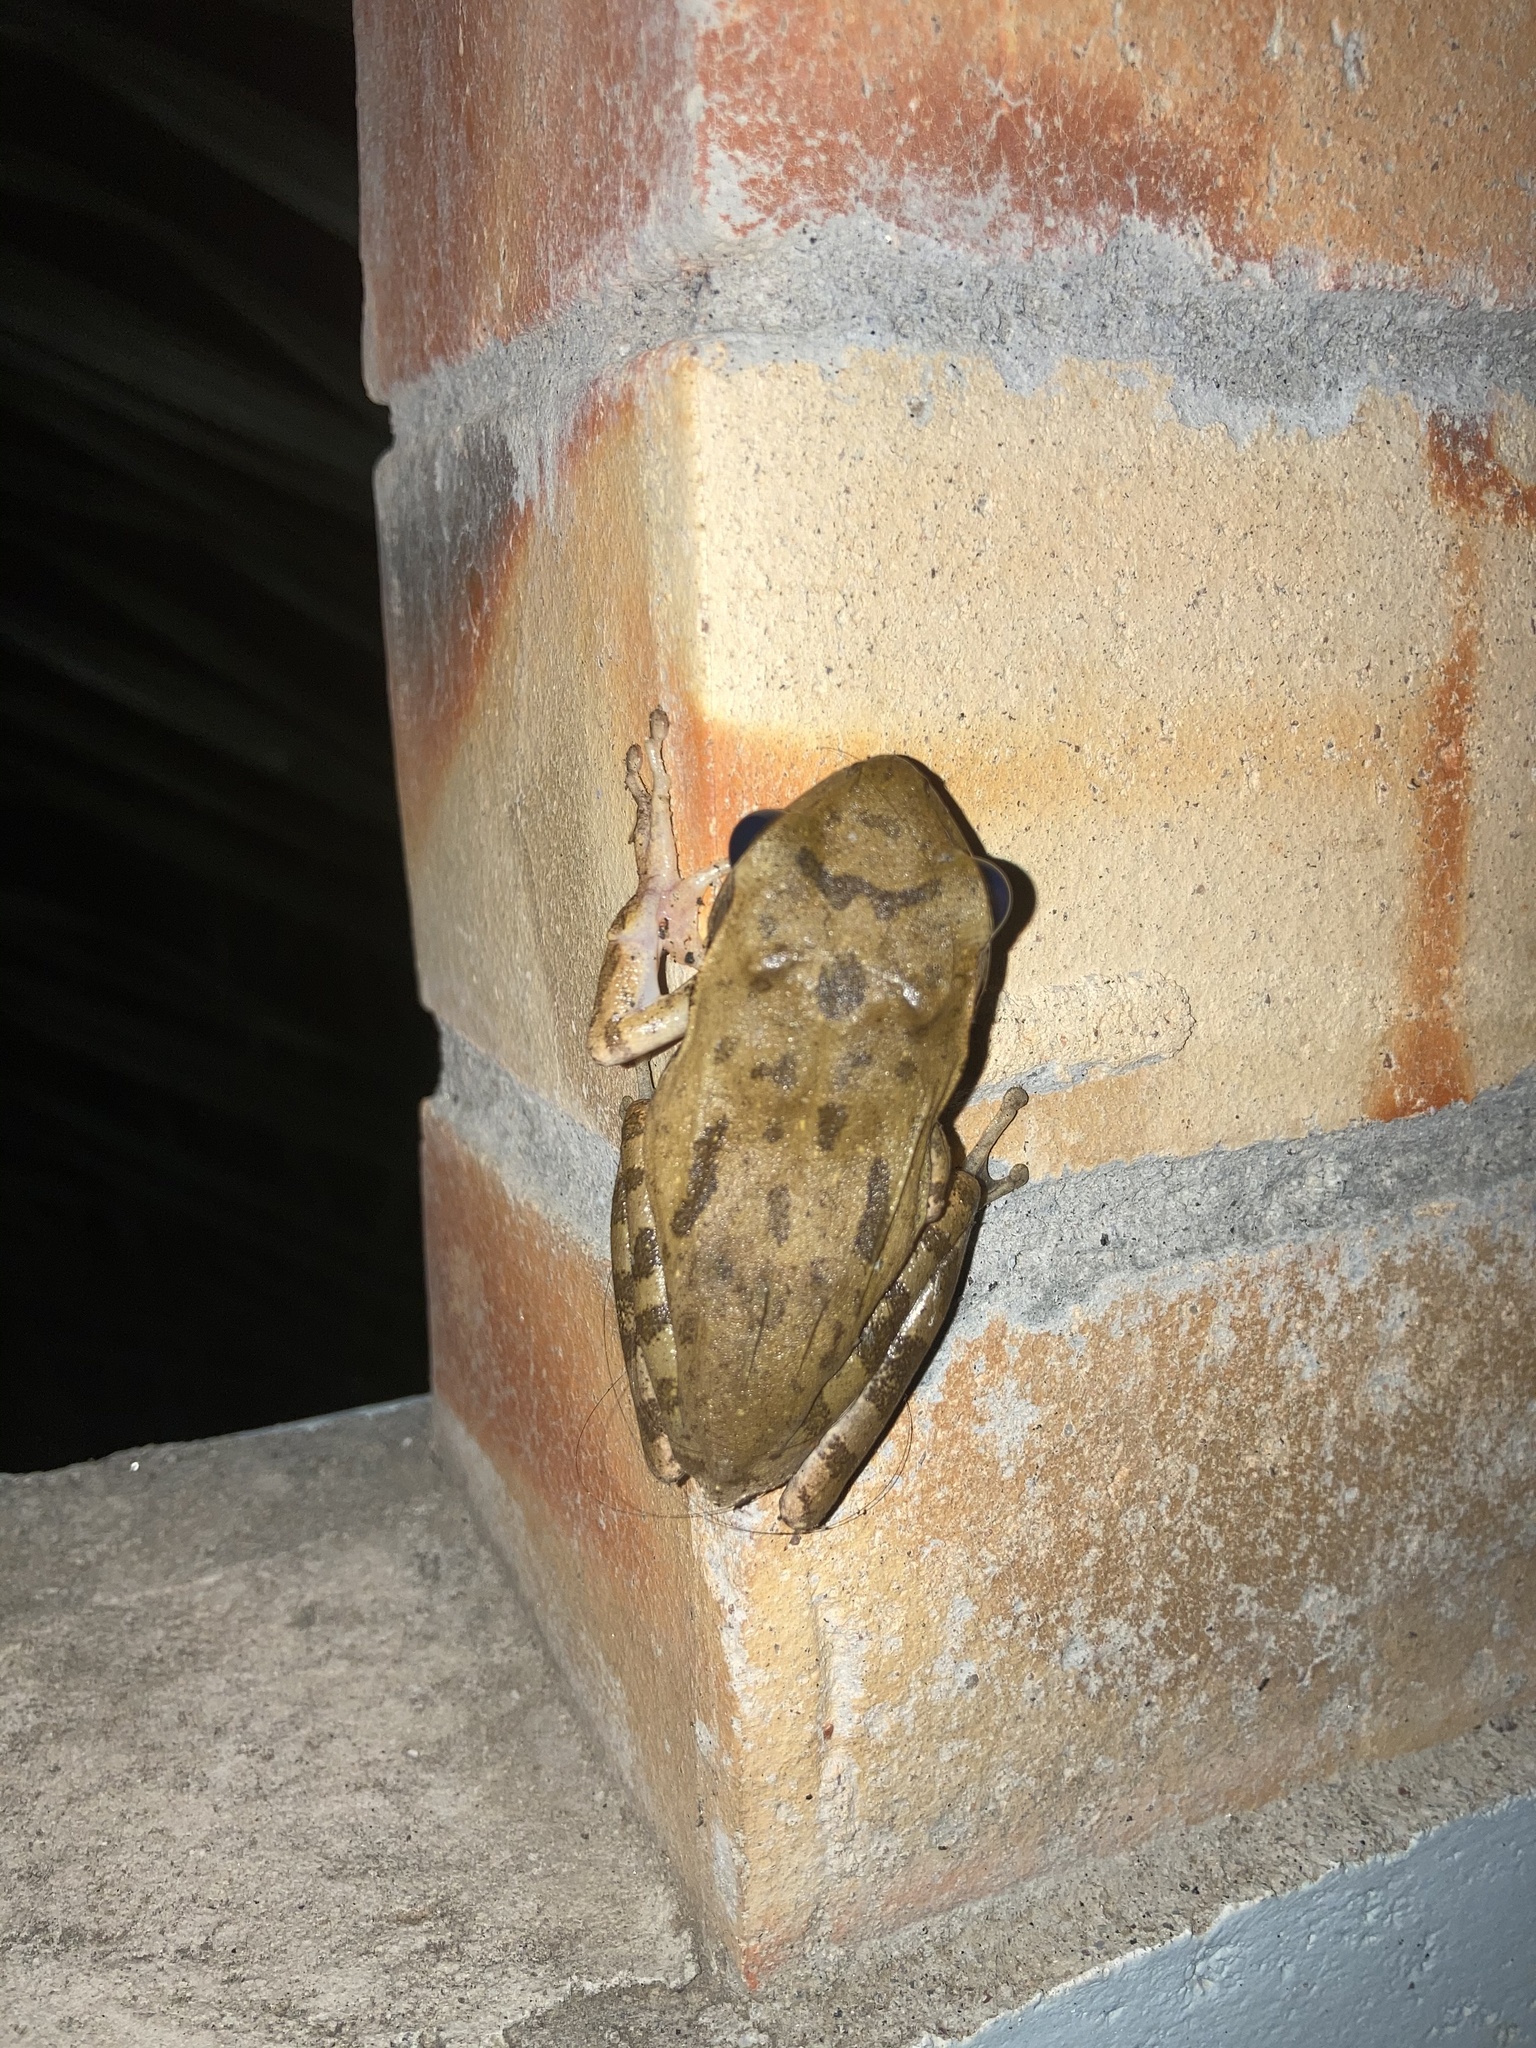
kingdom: Animalia
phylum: Chordata
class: Amphibia
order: Anura
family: Rhacophoridae
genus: Polypedates
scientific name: Polypedates maculatus
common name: Himalayan tree frog
